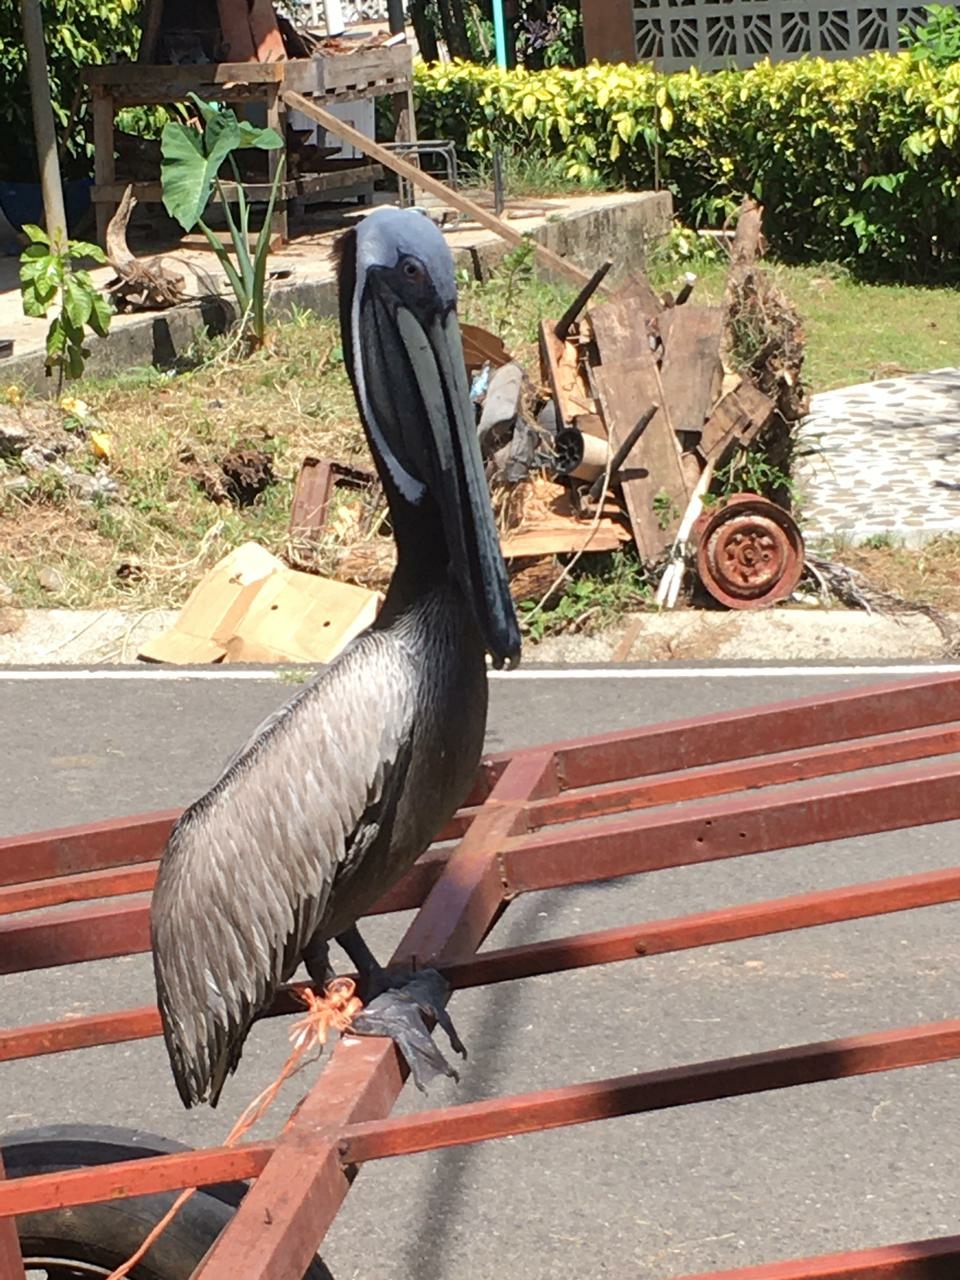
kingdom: Animalia
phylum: Chordata
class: Aves
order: Pelecaniformes
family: Pelecanidae
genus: Pelecanus
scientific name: Pelecanus occidentalis
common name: Brown pelican
